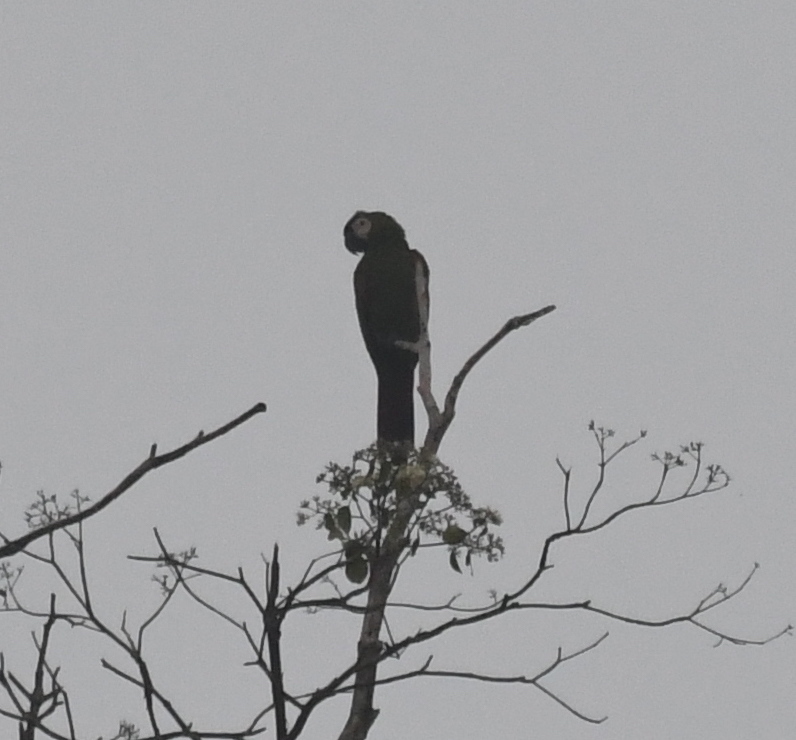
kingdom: Animalia
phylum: Chordata
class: Aves
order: Psittaciformes
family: Psittacidae
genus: Ara
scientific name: Ara severus
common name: Chestnut-fronted macaw
